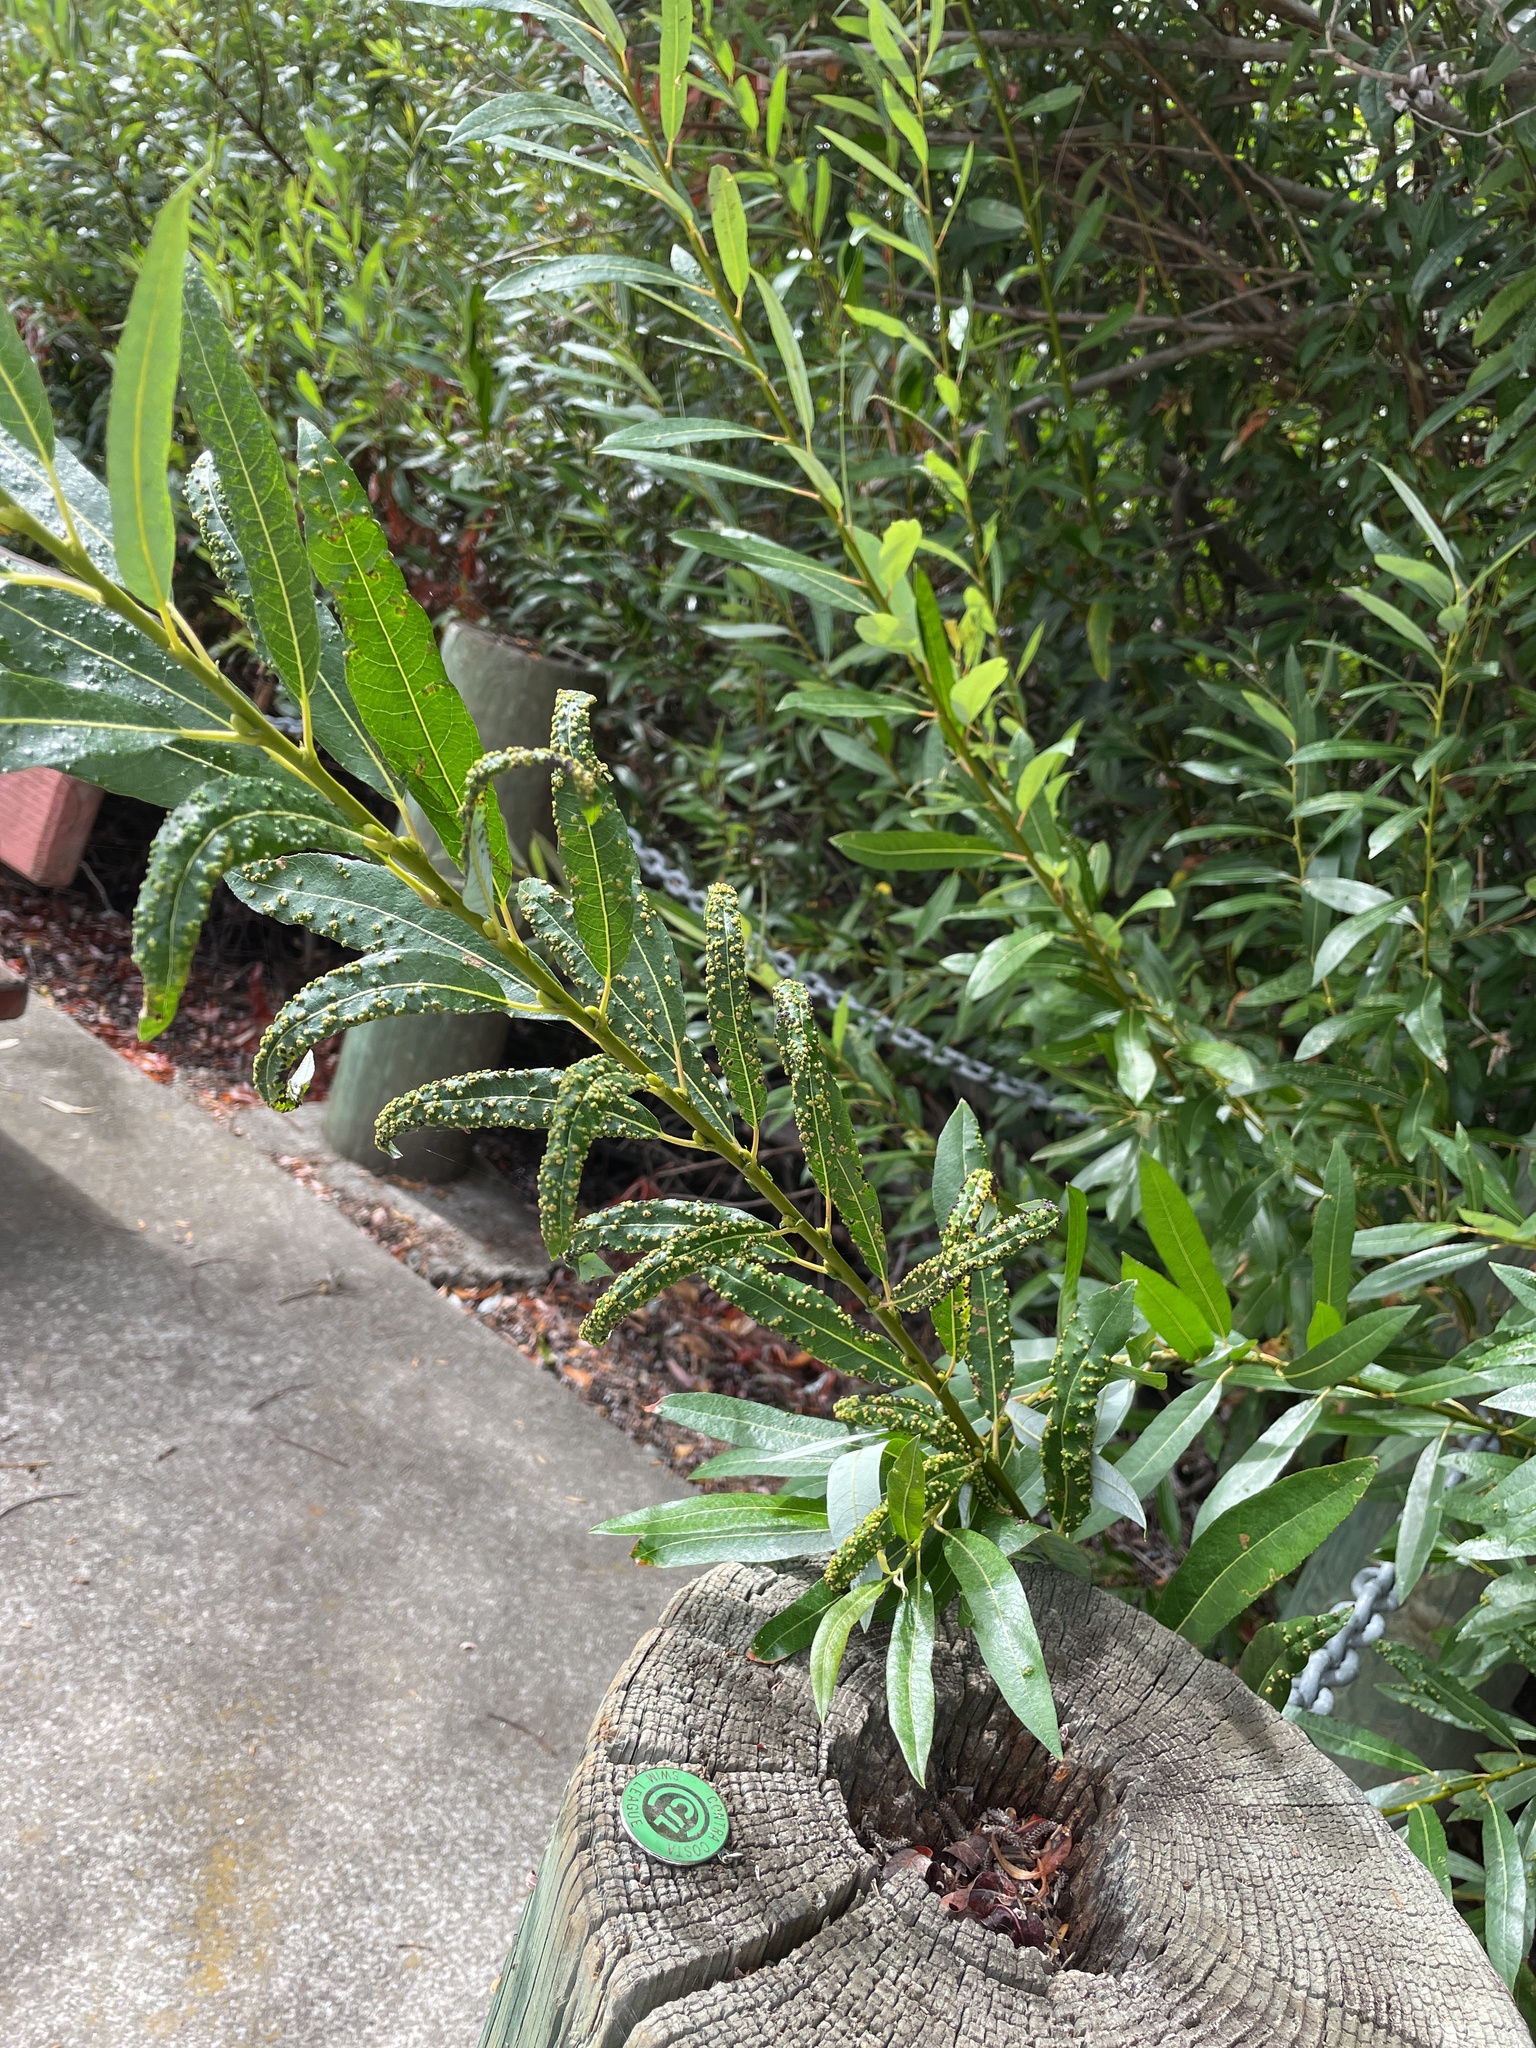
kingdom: Animalia
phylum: Arthropoda
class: Arachnida
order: Trombidiformes
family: Eriophyidae
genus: Aculus
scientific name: Aculus tetanothrix
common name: Willow bead gall mite
